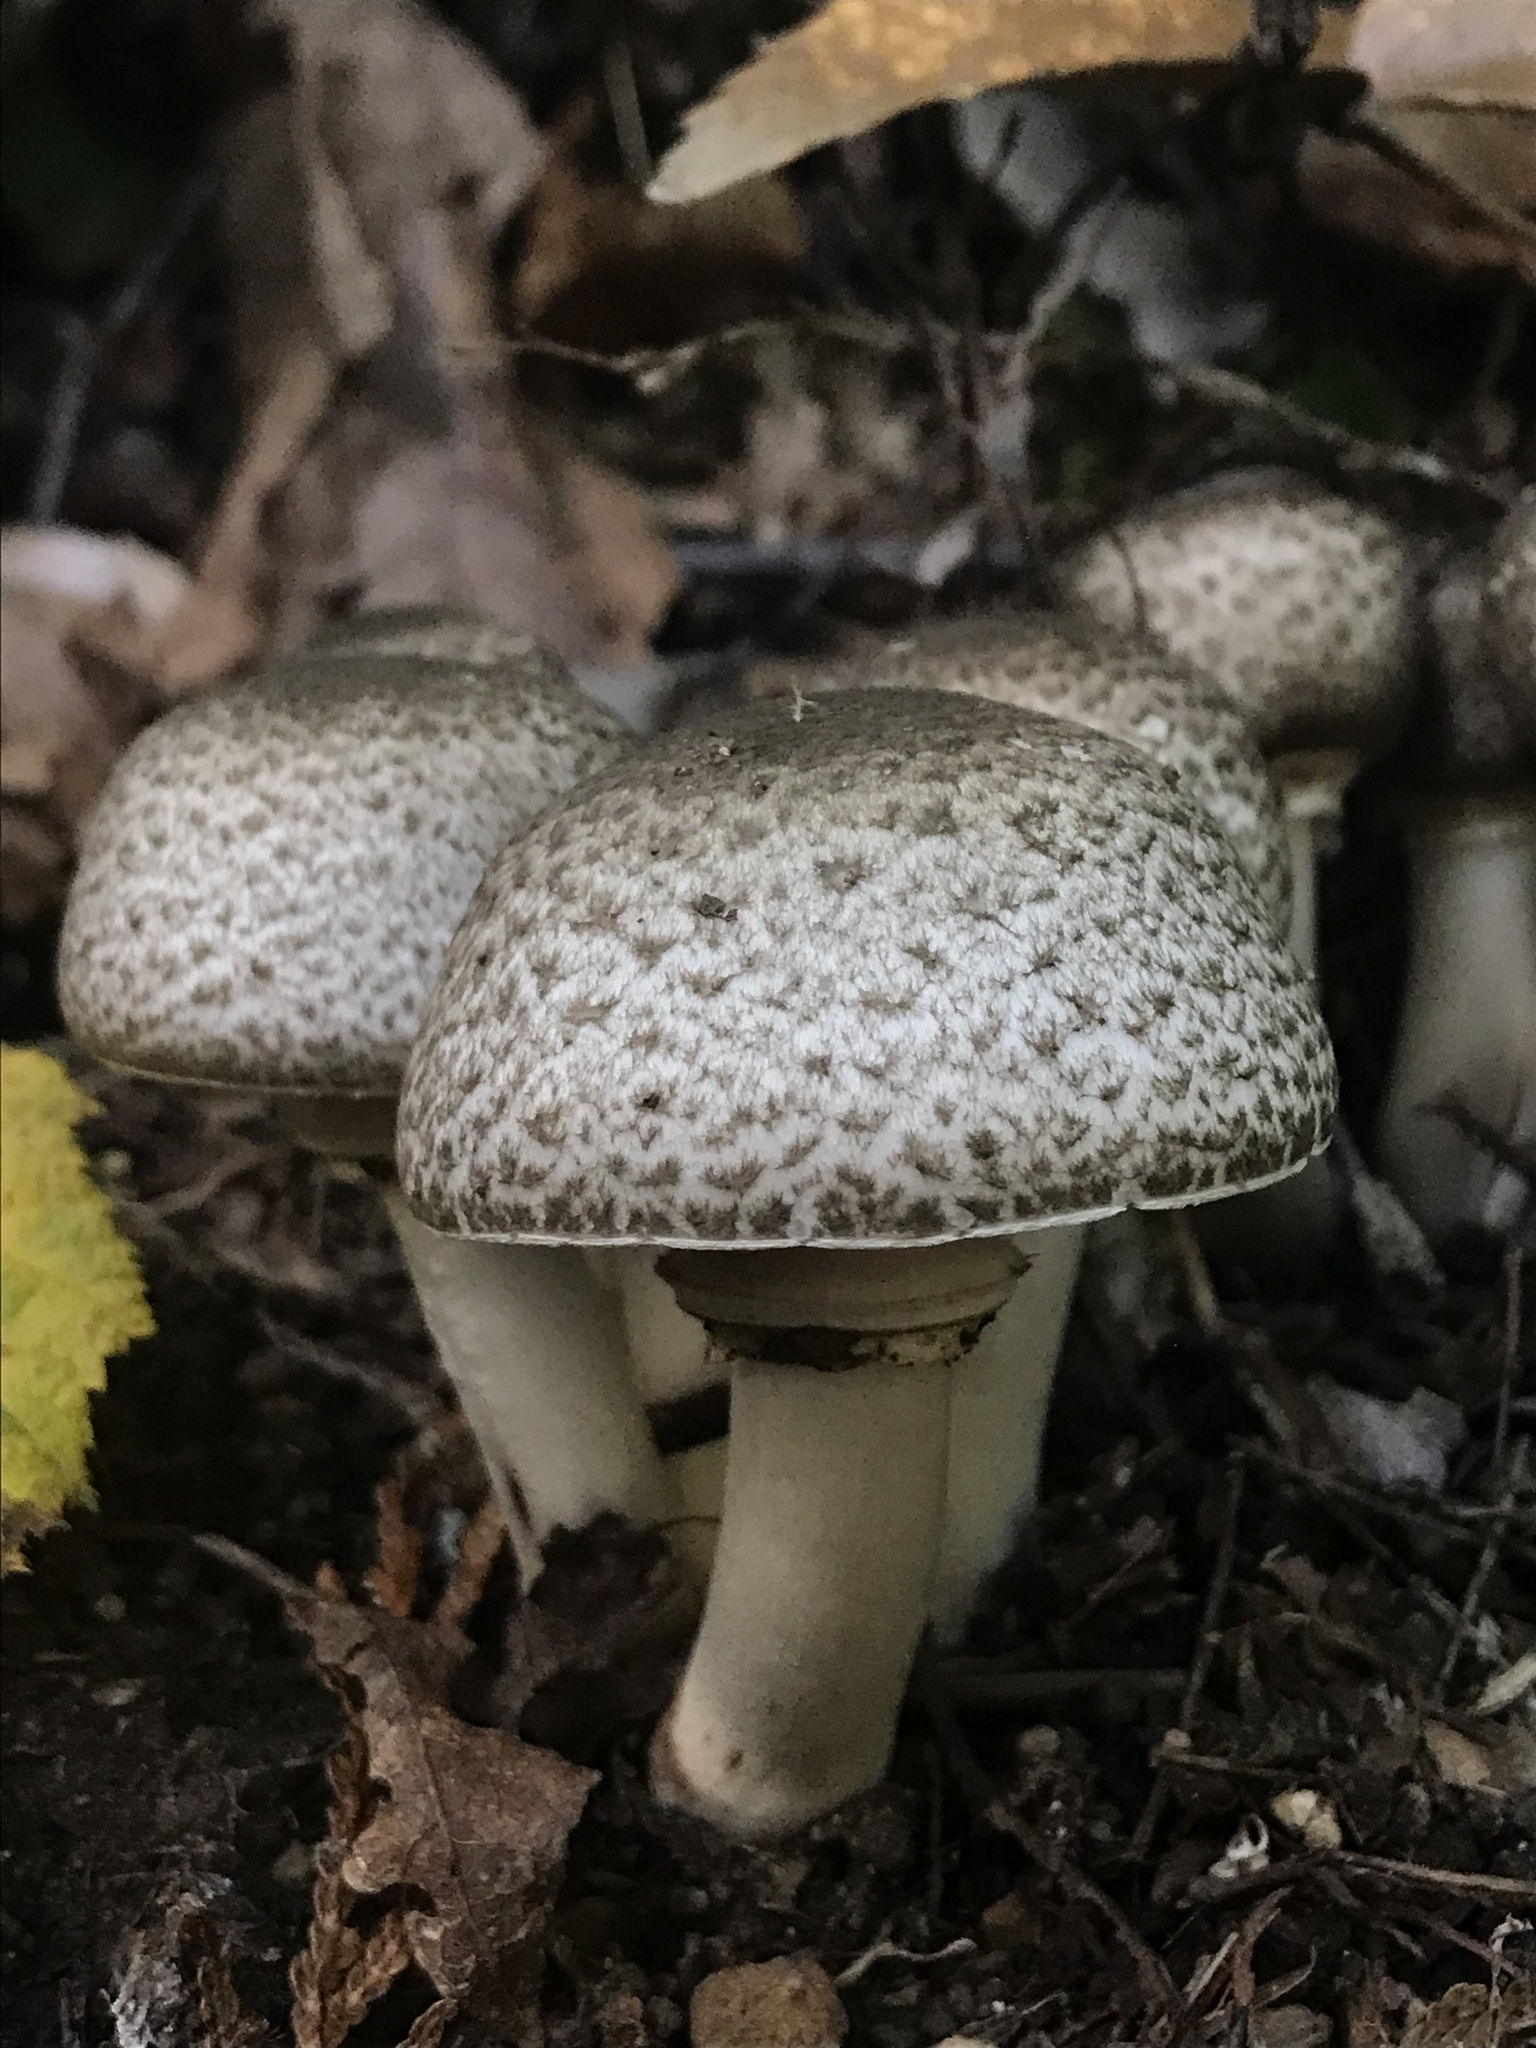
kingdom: Fungi
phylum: Basidiomycota
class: Agaricomycetes
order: Agaricales
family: Agaricaceae
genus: Agaricus
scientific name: Agaricus deardorffensis
